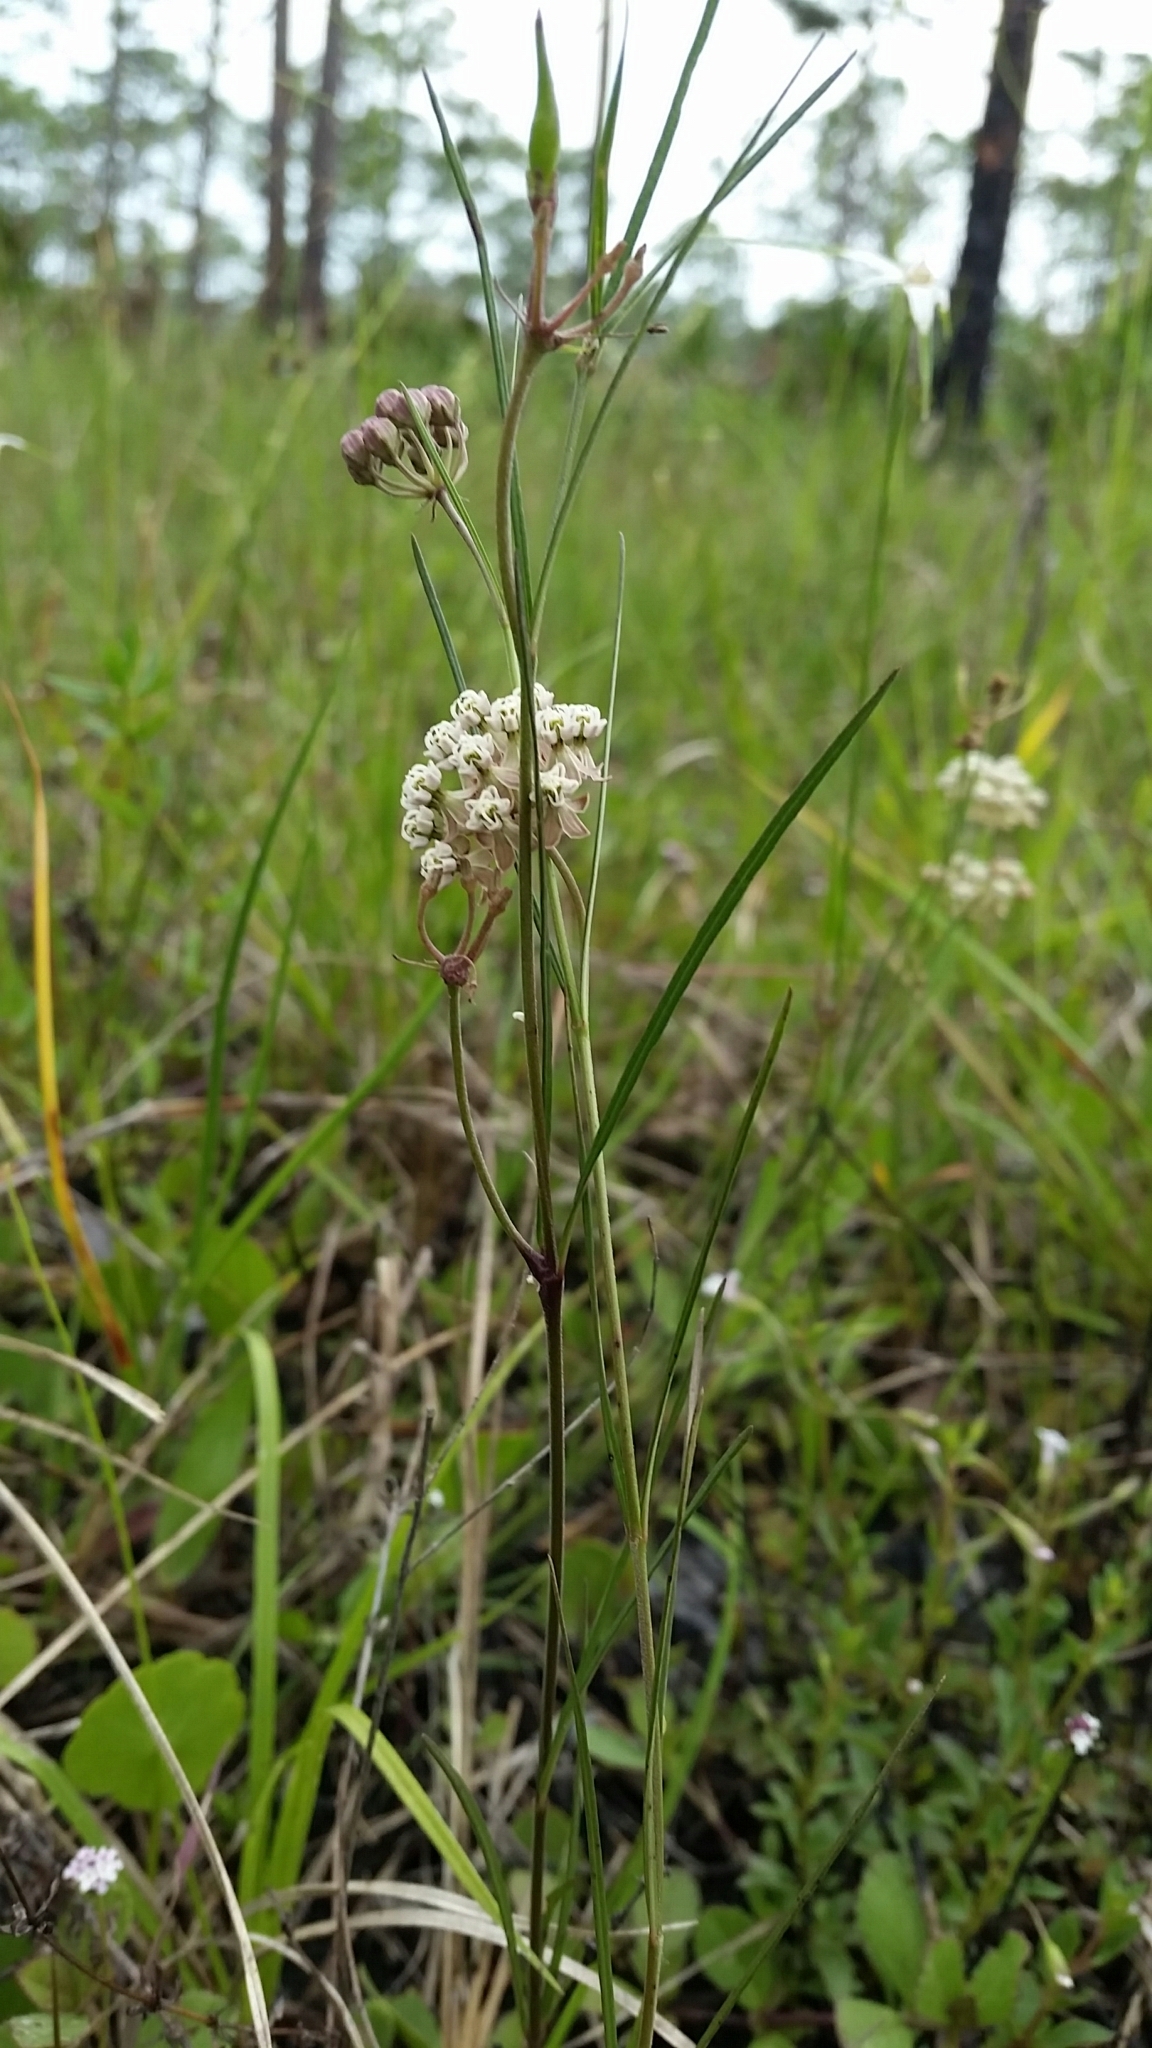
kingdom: Plantae
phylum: Tracheophyta
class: Magnoliopsida
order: Gentianales
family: Apocynaceae
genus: Asclepias
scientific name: Asclepias verticillata
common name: Eastern whorled milkweed
